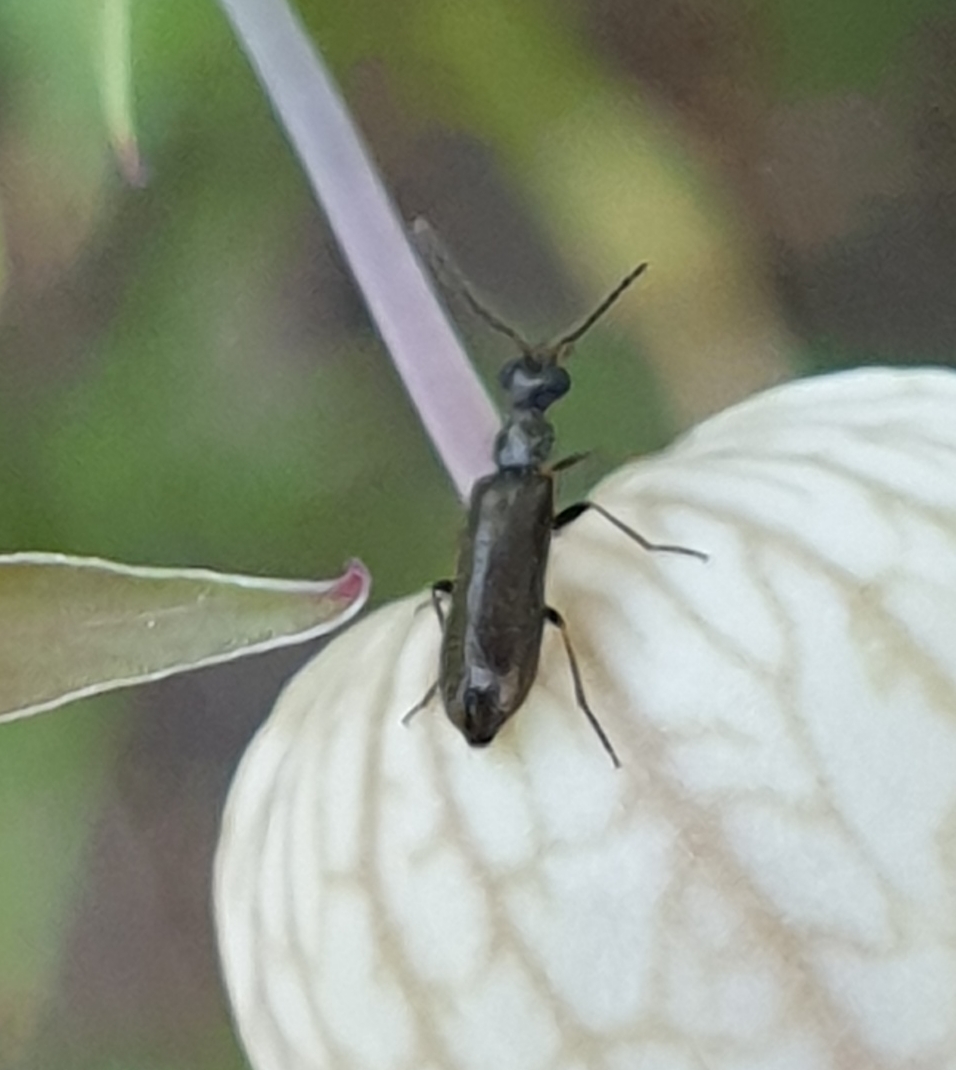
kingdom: Animalia
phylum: Arthropoda
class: Insecta
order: Coleoptera
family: Melyridae
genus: Dasytes
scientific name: Dasytes plumbeus
